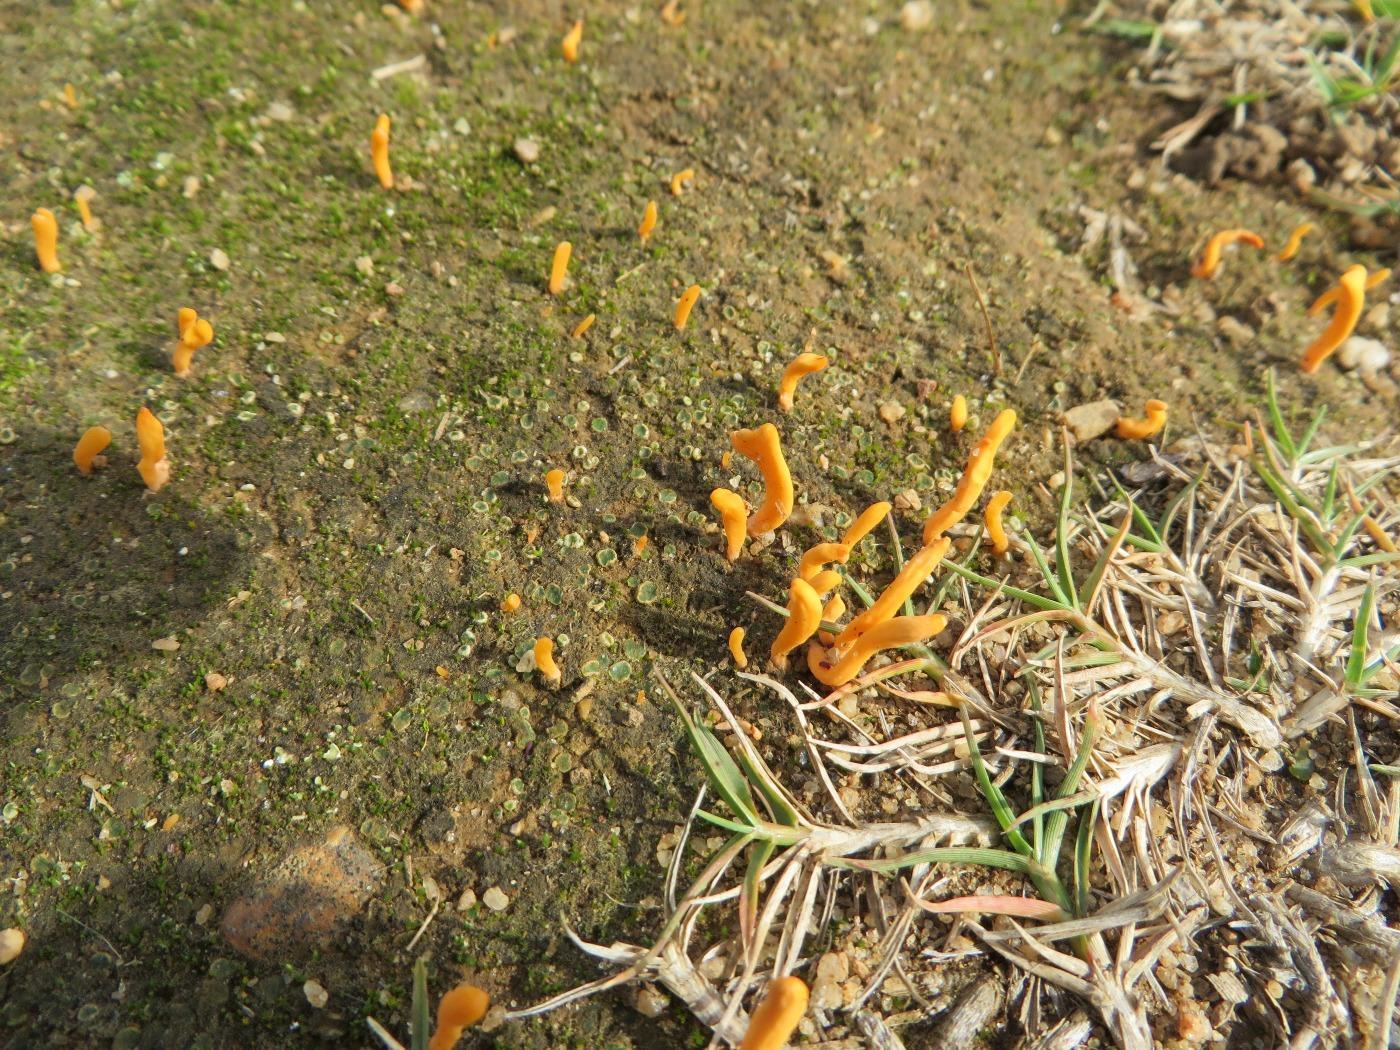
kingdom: Fungi
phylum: Basidiomycota
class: Agaricomycetes
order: Lepidostromatales
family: Lepidostromataceae
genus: Lepidostroma
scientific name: Lepidostroma rugaramae
